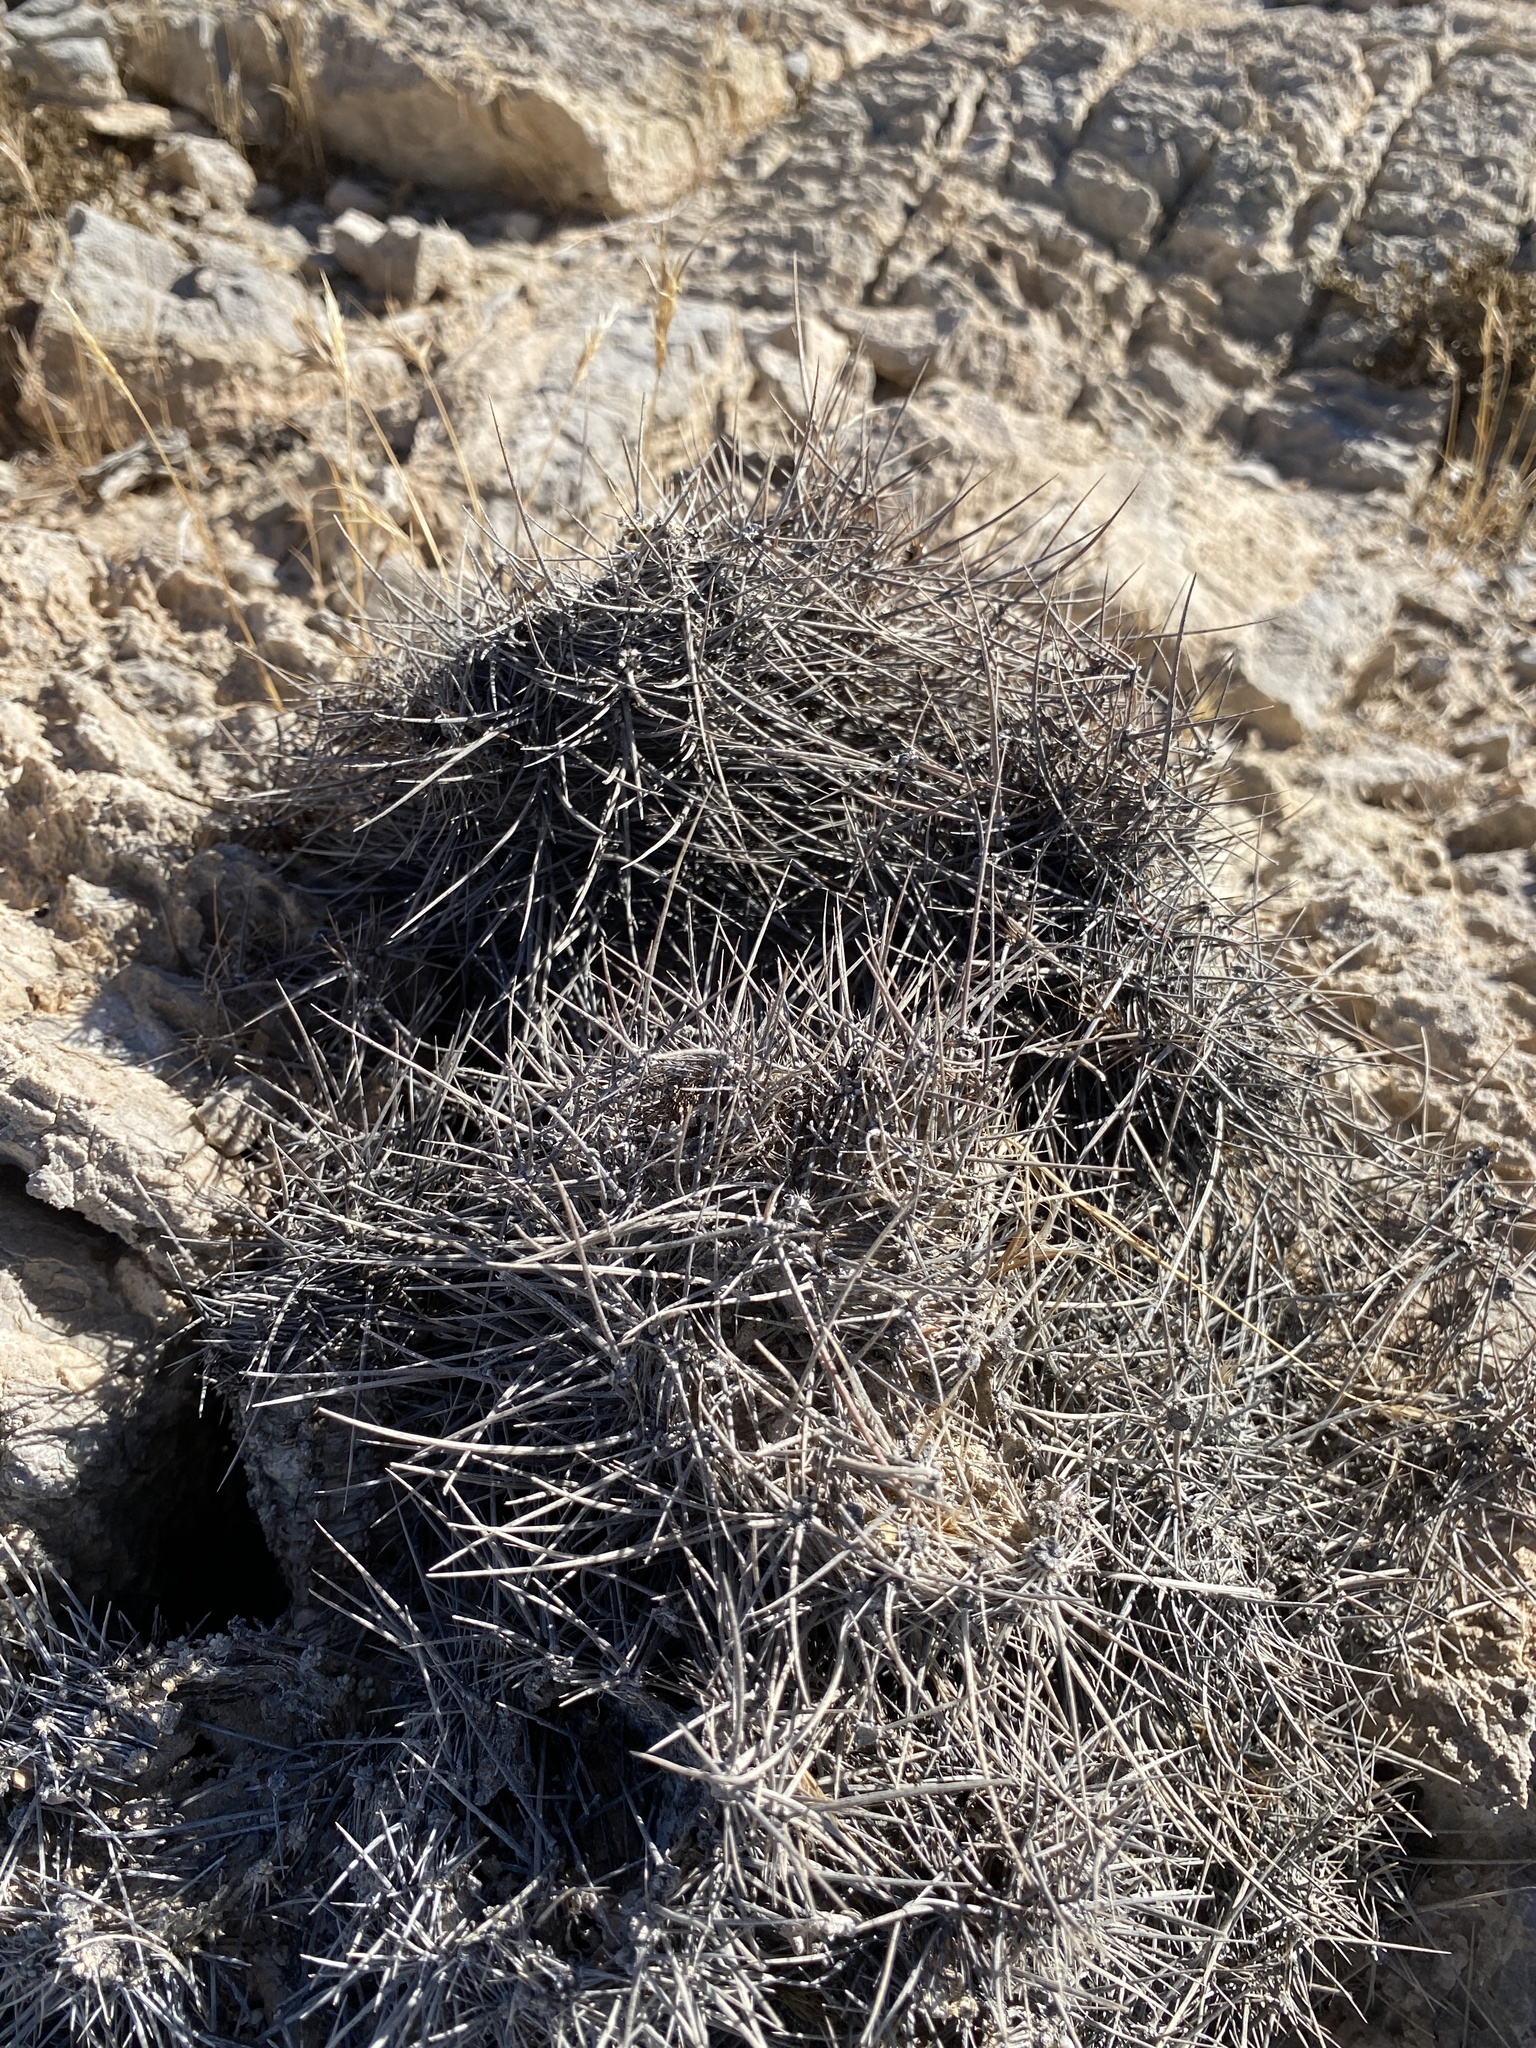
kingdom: Plantae
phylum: Tracheophyta
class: Magnoliopsida
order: Caryophyllales
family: Cactaceae
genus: Echinocereus
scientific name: Echinocereus triglochidiatus
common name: Claretcup hedgehog
